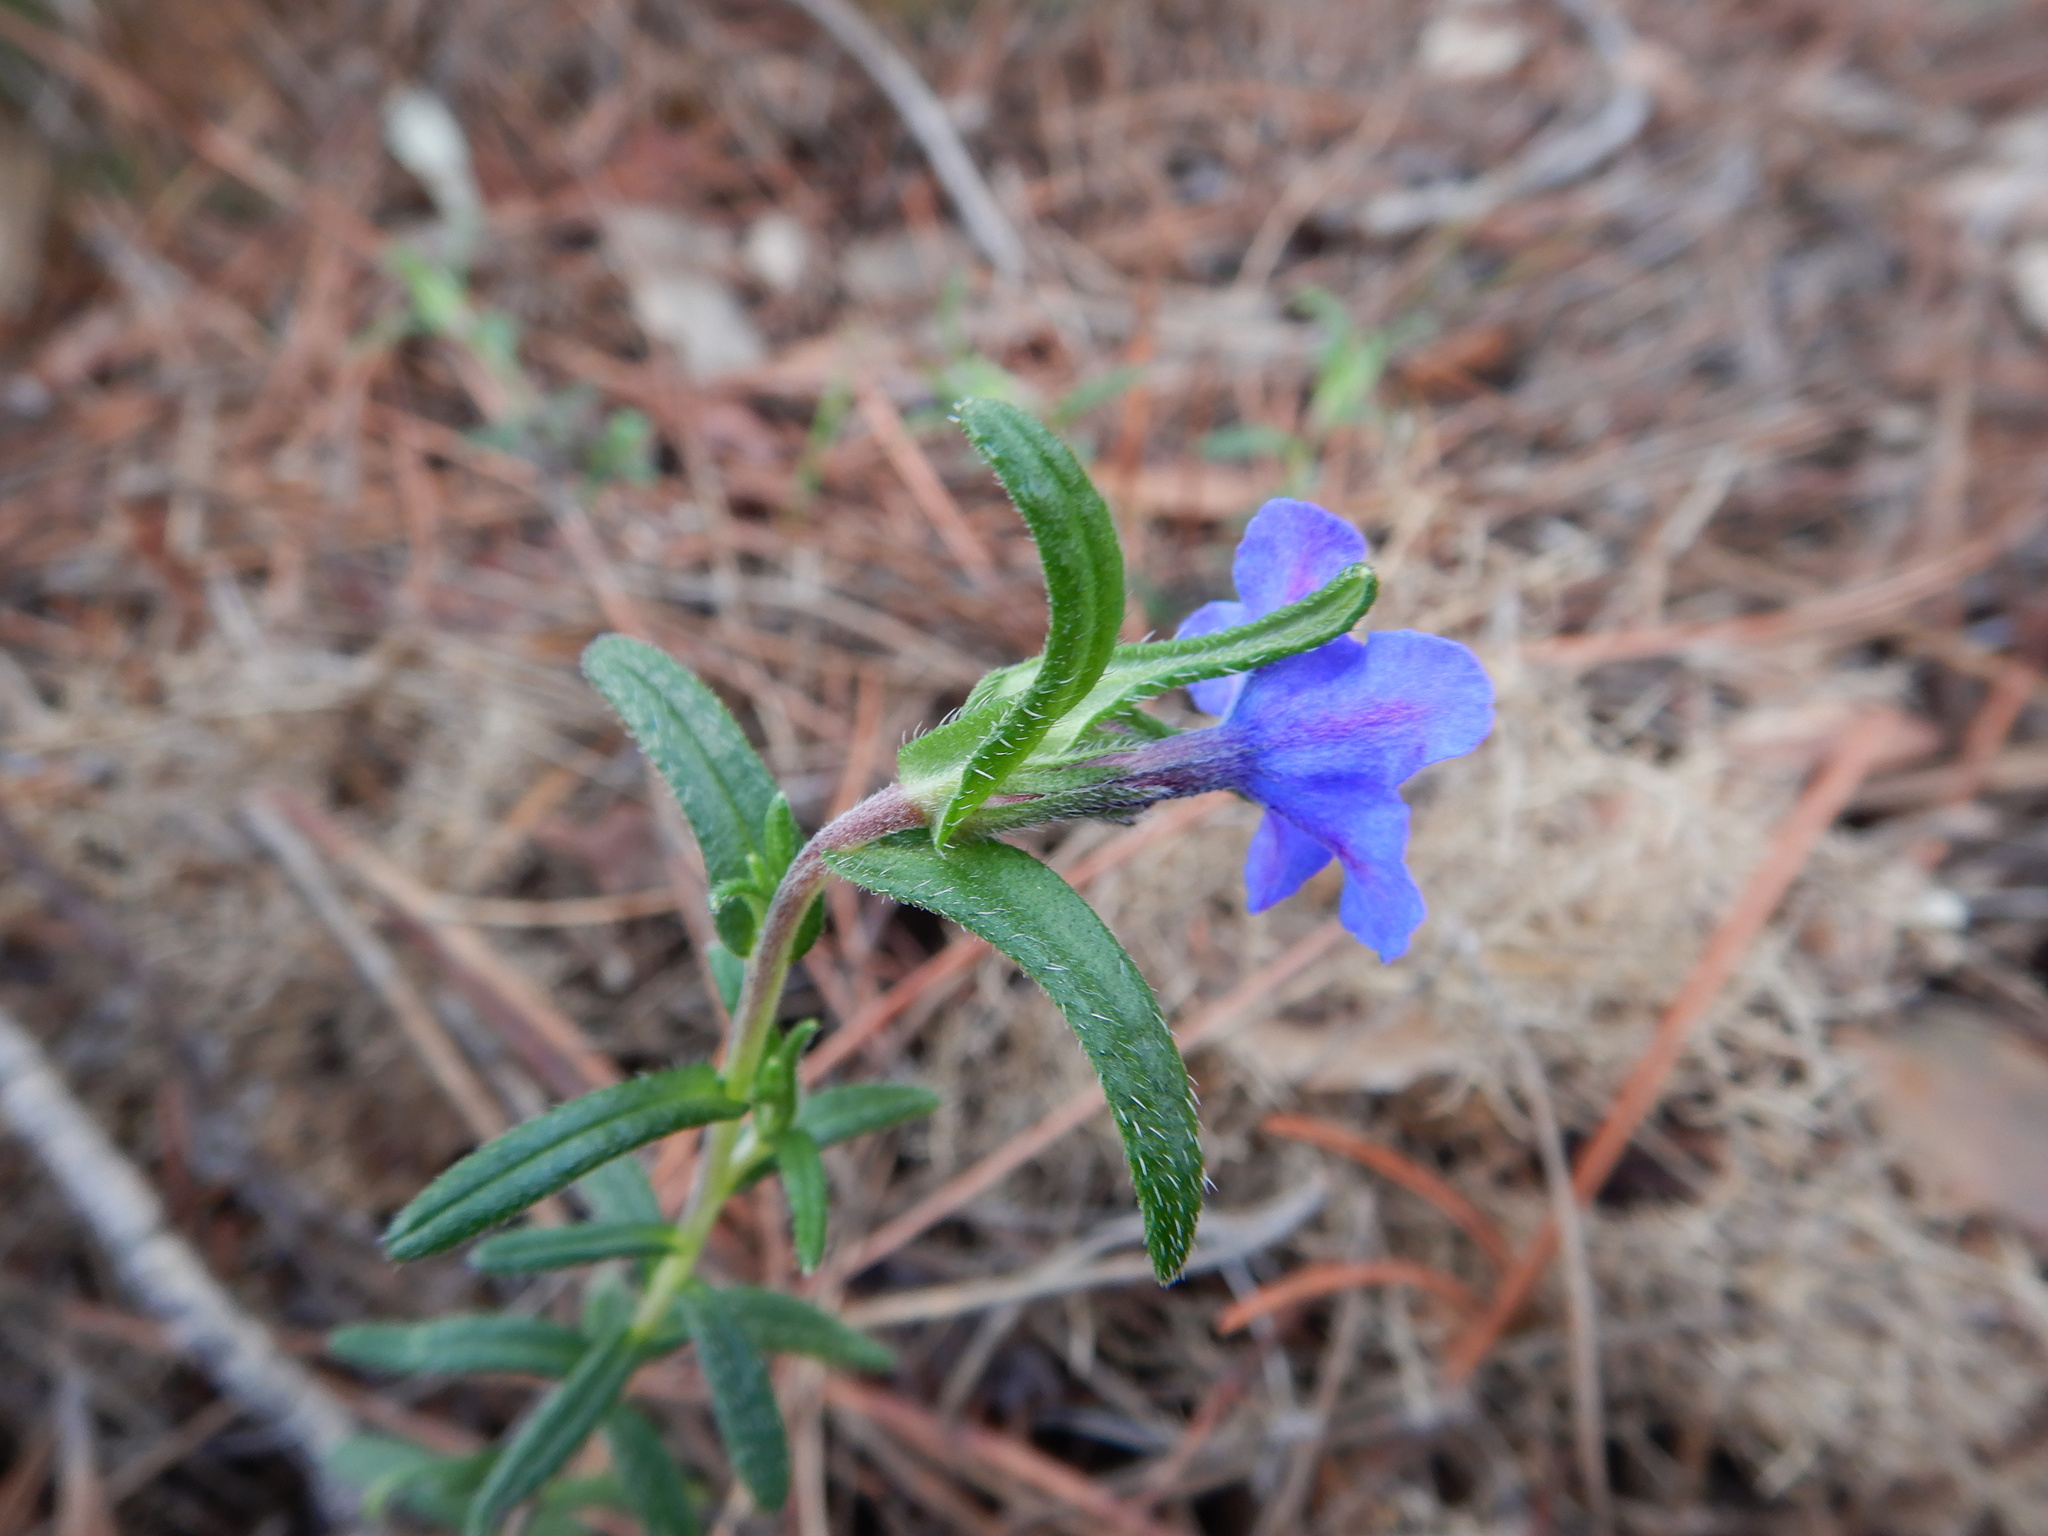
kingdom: Plantae
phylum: Tracheophyta
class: Magnoliopsida
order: Boraginales
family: Boraginaceae
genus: Glandora
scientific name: Glandora prostrata
